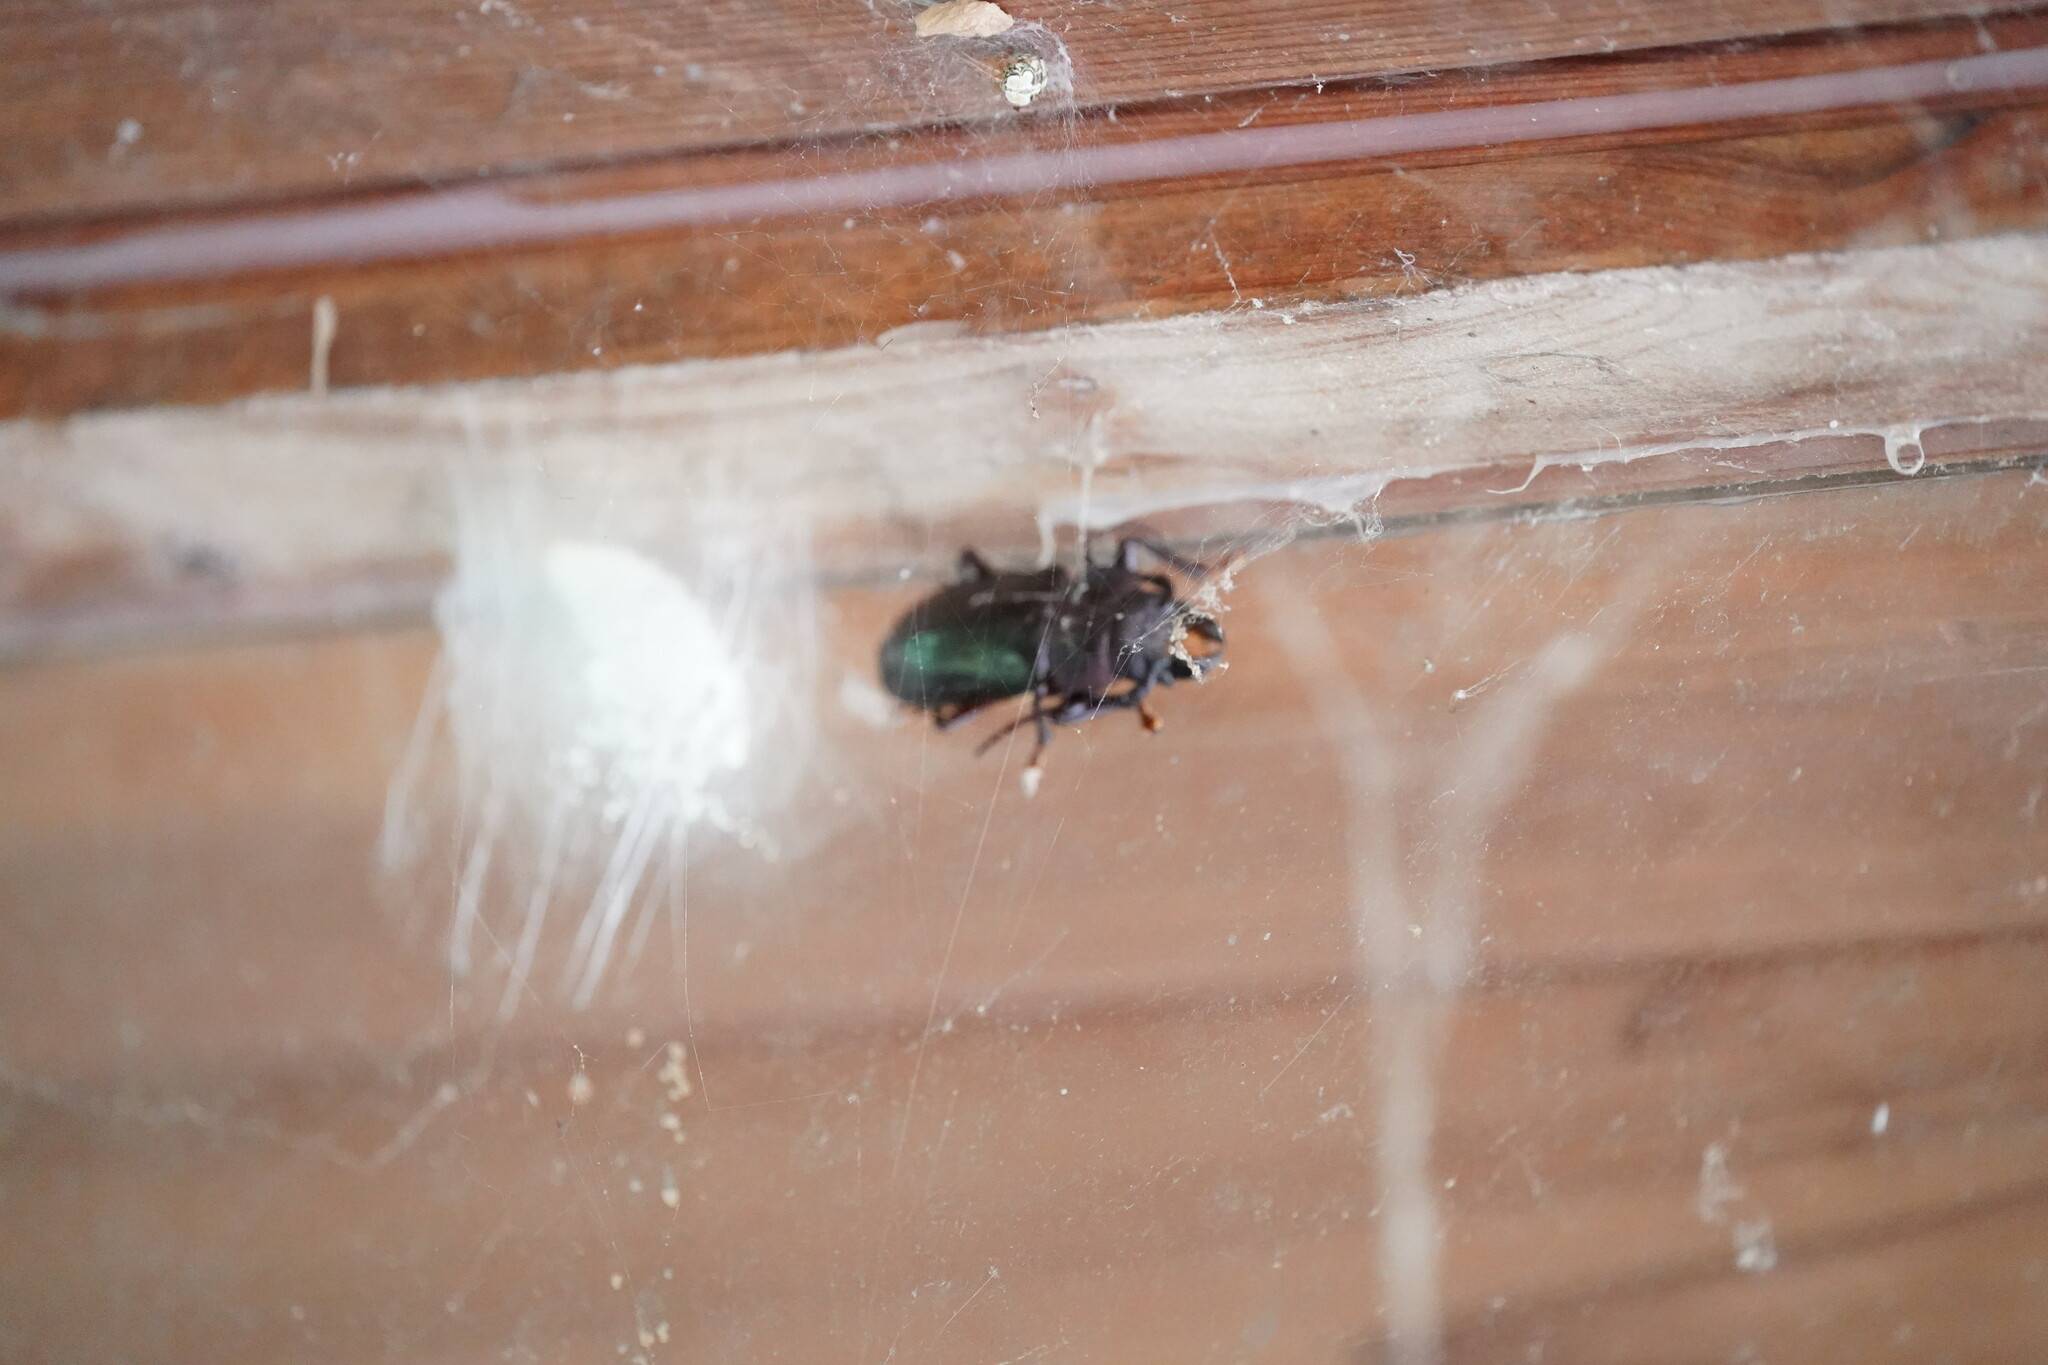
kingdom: Animalia
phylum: Arthropoda
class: Insecta
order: Coleoptera
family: Cerambycidae
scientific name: Cerambycidae
